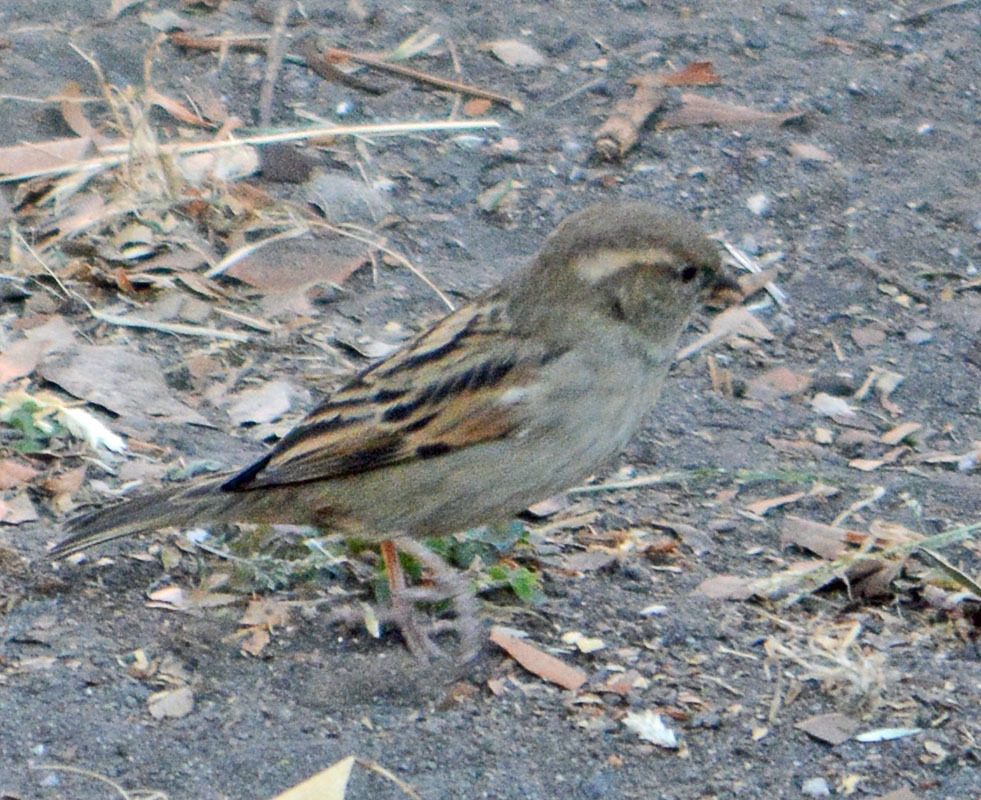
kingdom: Animalia
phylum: Chordata
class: Aves
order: Passeriformes
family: Passeridae
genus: Passer
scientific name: Passer domesticus
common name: House sparrow
